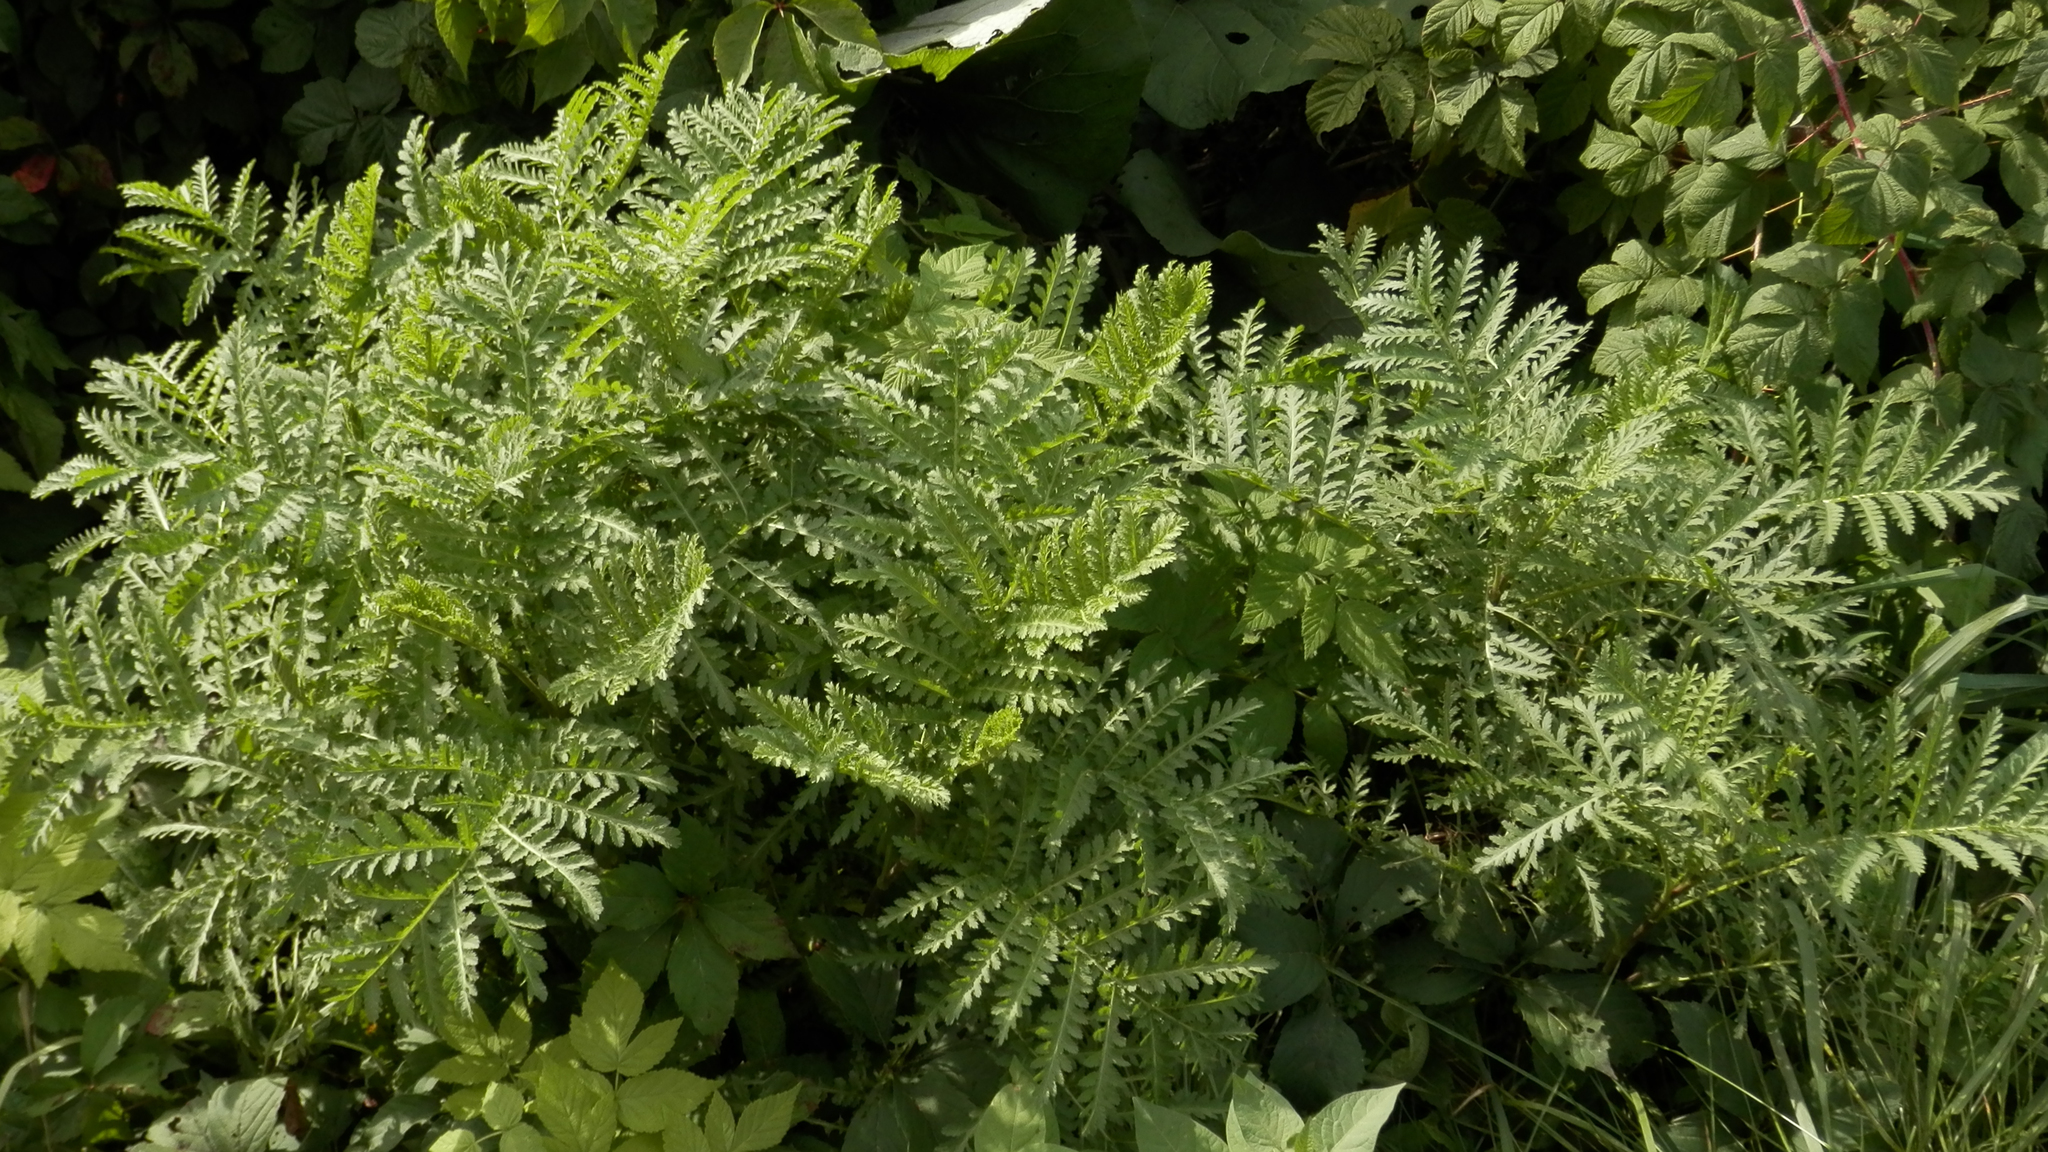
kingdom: Plantae
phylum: Tracheophyta
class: Magnoliopsida
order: Asterales
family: Asteraceae
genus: Tanacetum
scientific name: Tanacetum vulgare
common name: Common tansy
